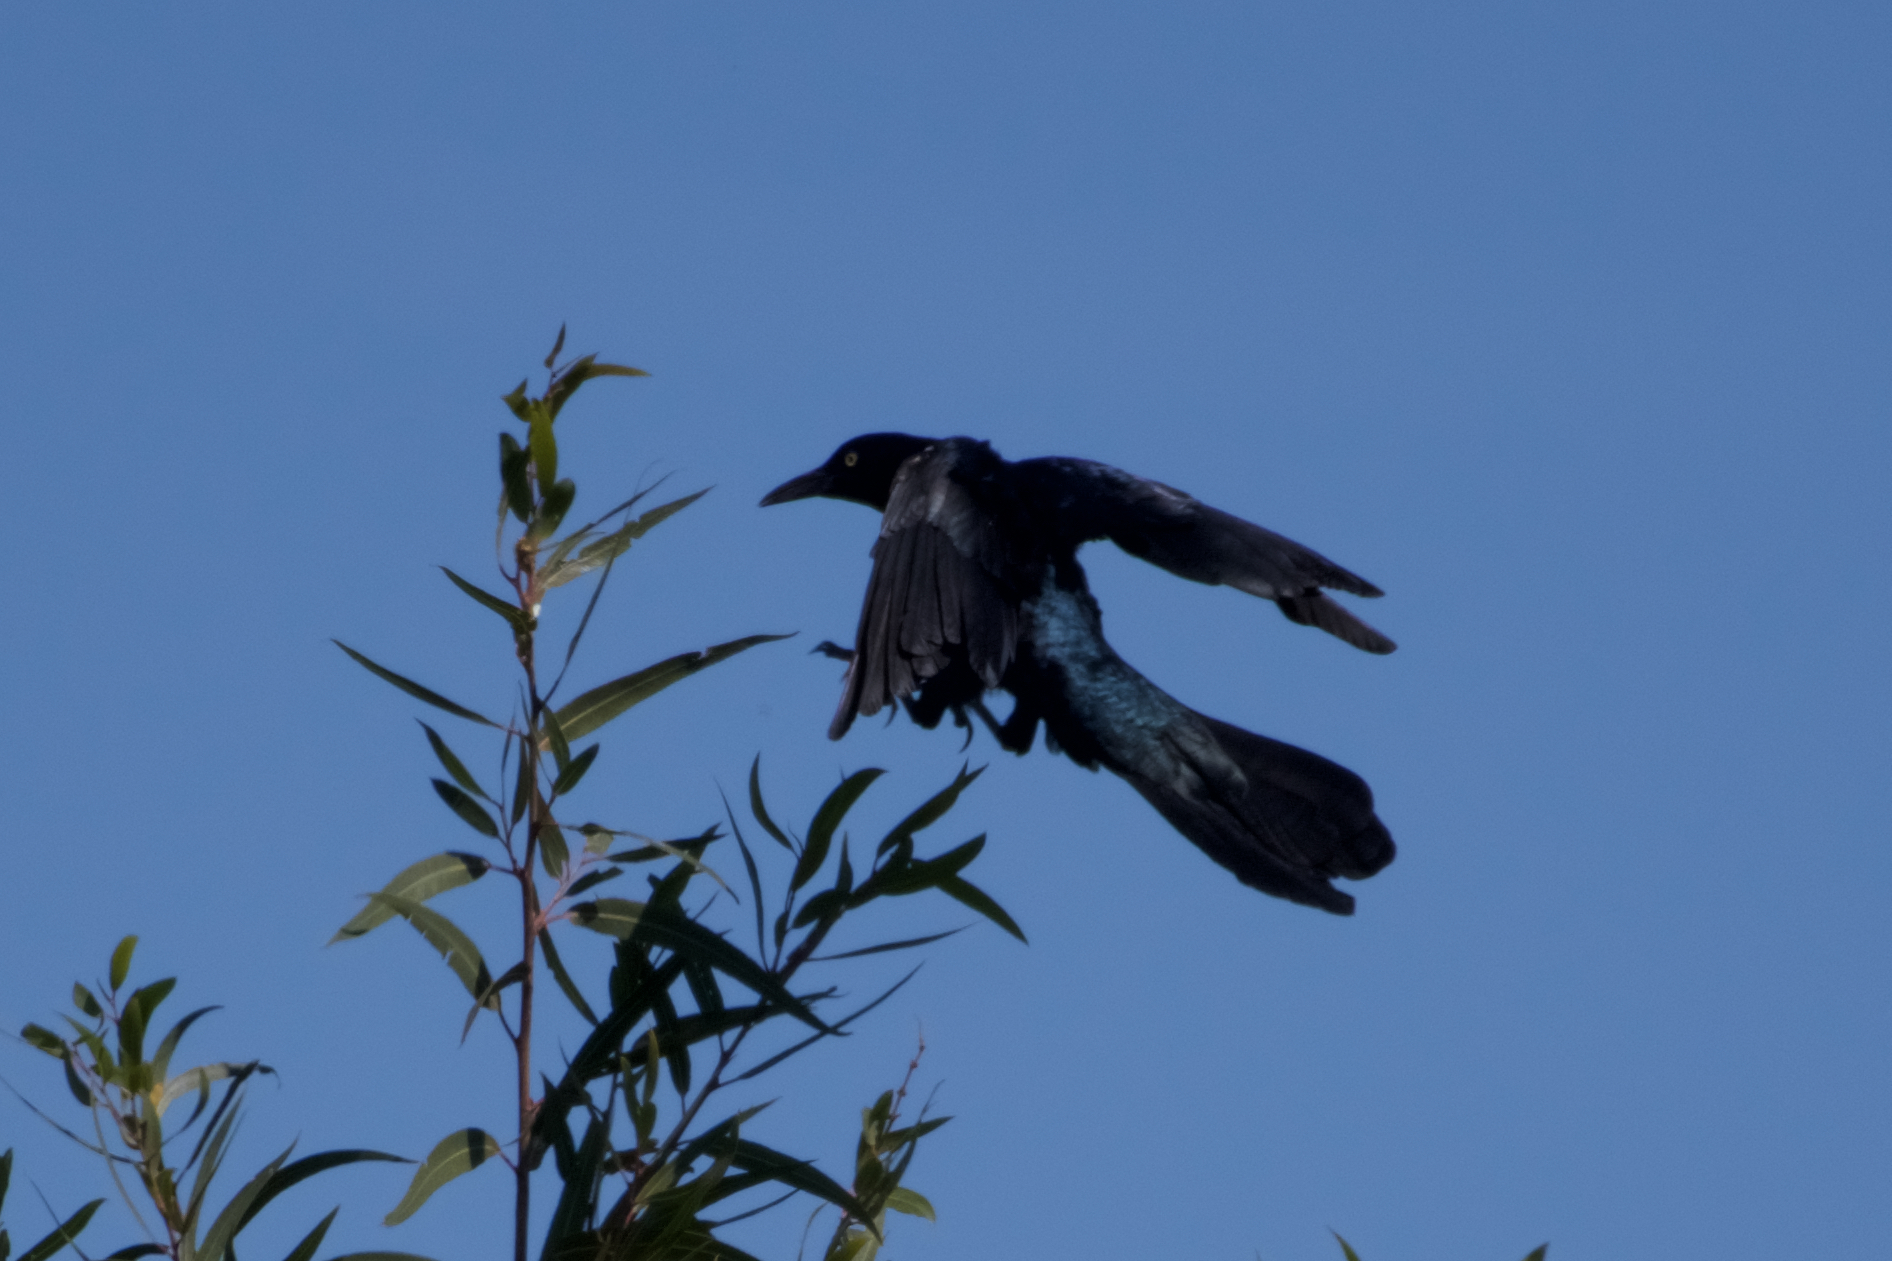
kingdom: Animalia
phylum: Chordata
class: Aves
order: Passeriformes
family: Icteridae
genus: Quiscalus
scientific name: Quiscalus mexicanus
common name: Great-tailed grackle
